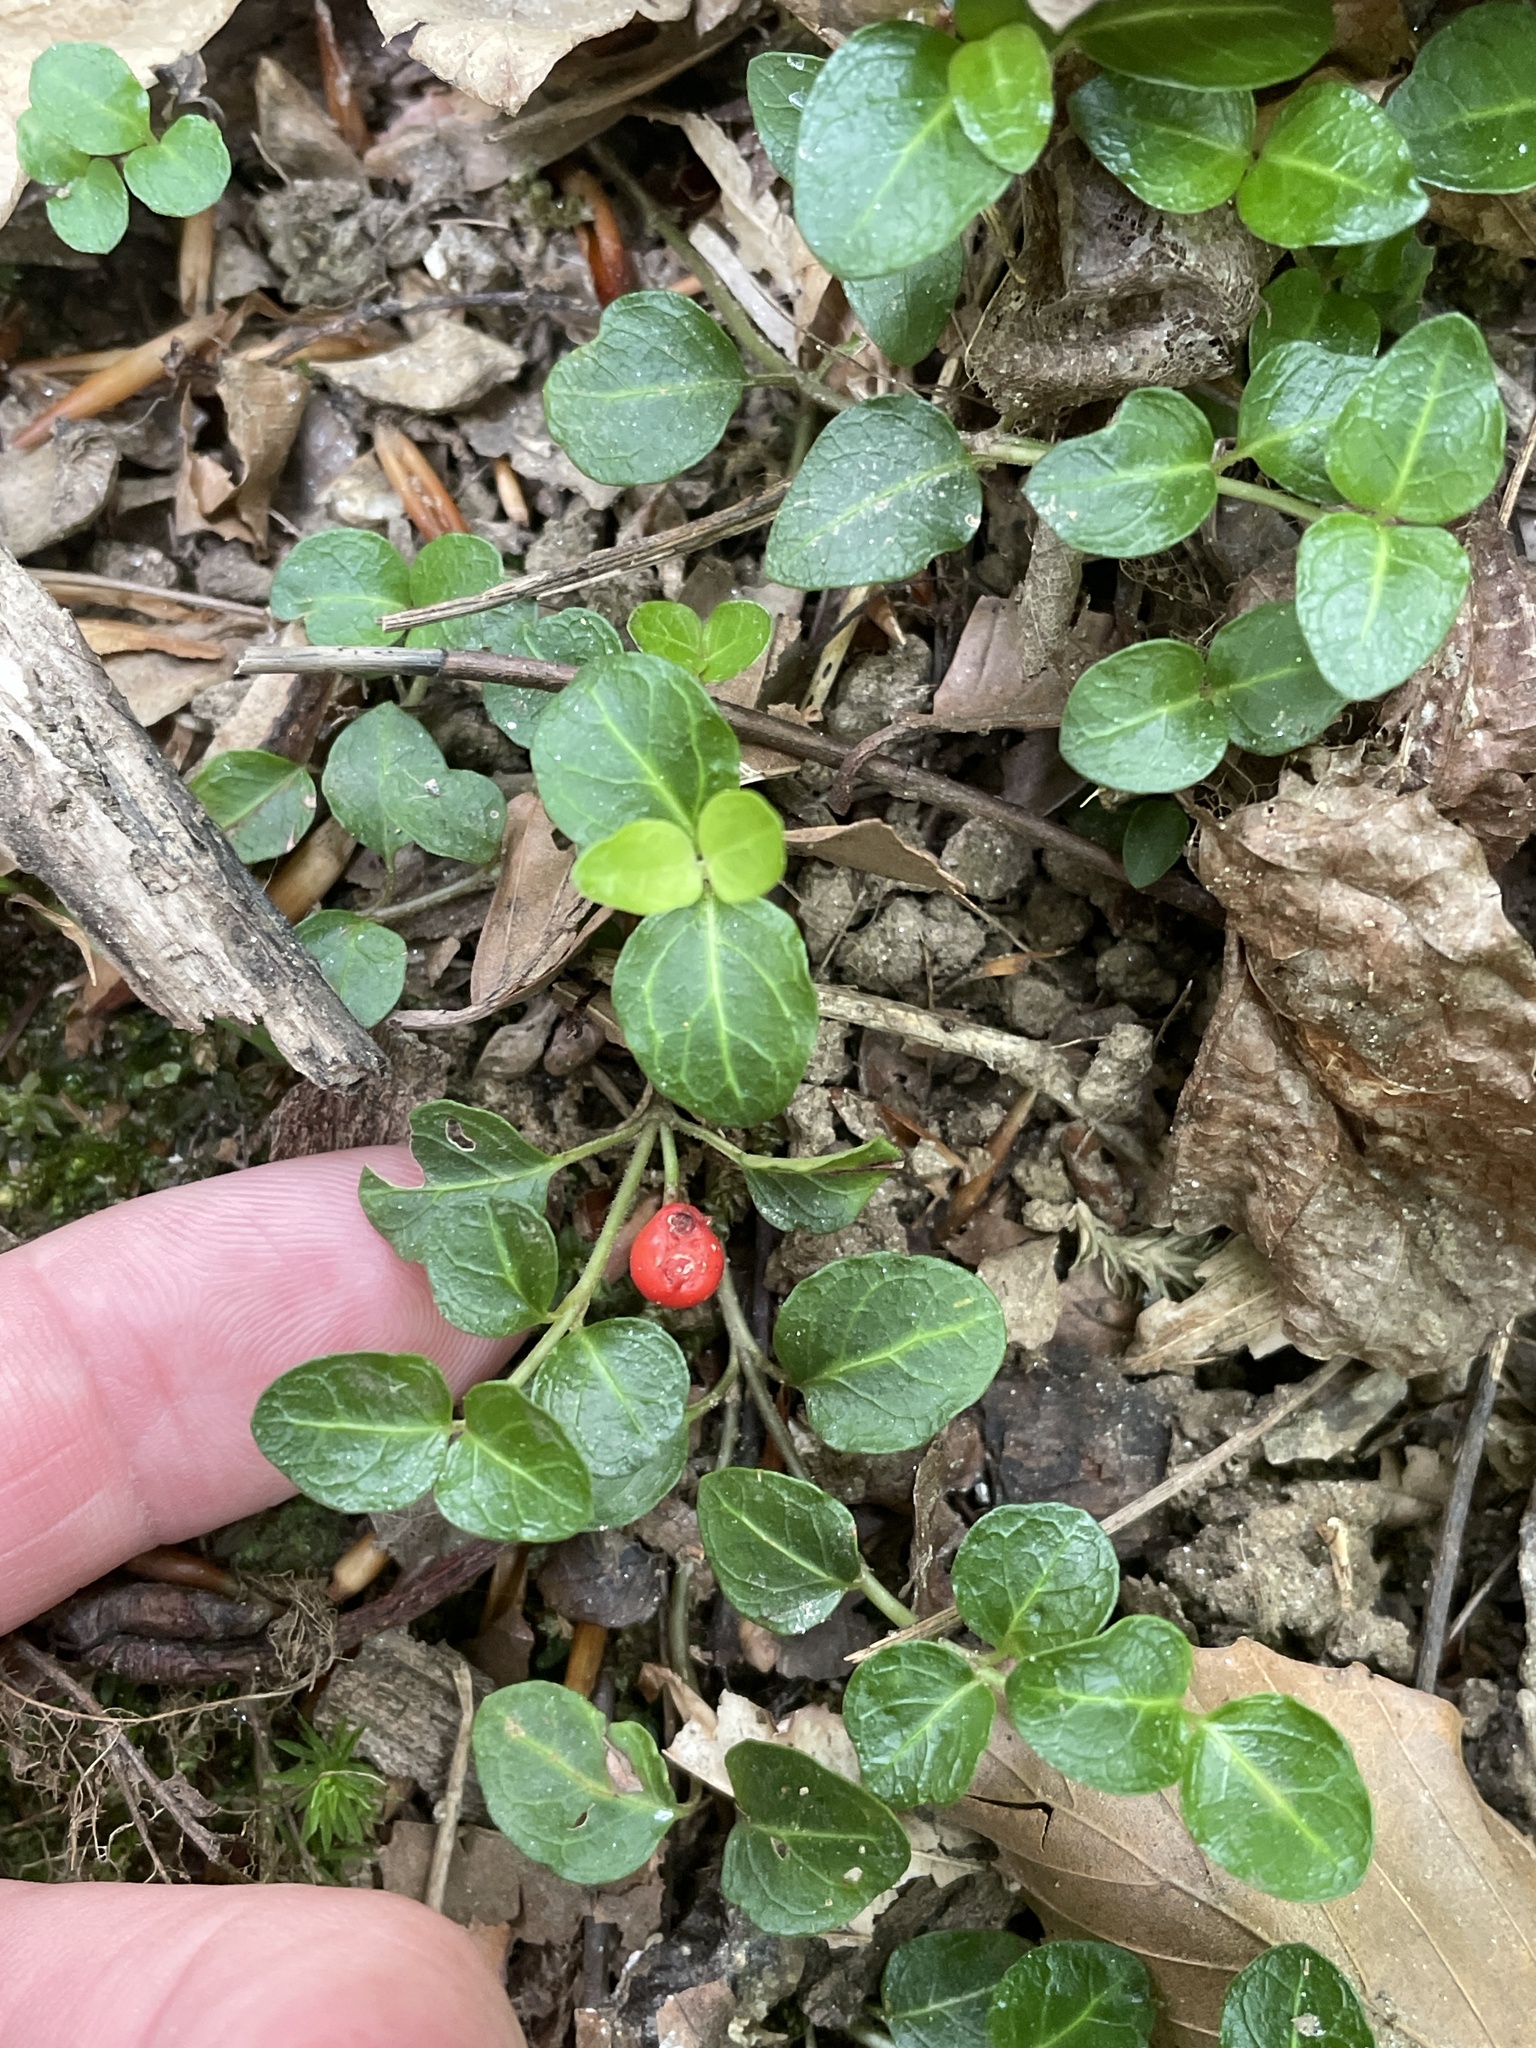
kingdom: Plantae
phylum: Tracheophyta
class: Magnoliopsida
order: Gentianales
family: Rubiaceae
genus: Mitchella
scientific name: Mitchella repens
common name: Partridge-berry
